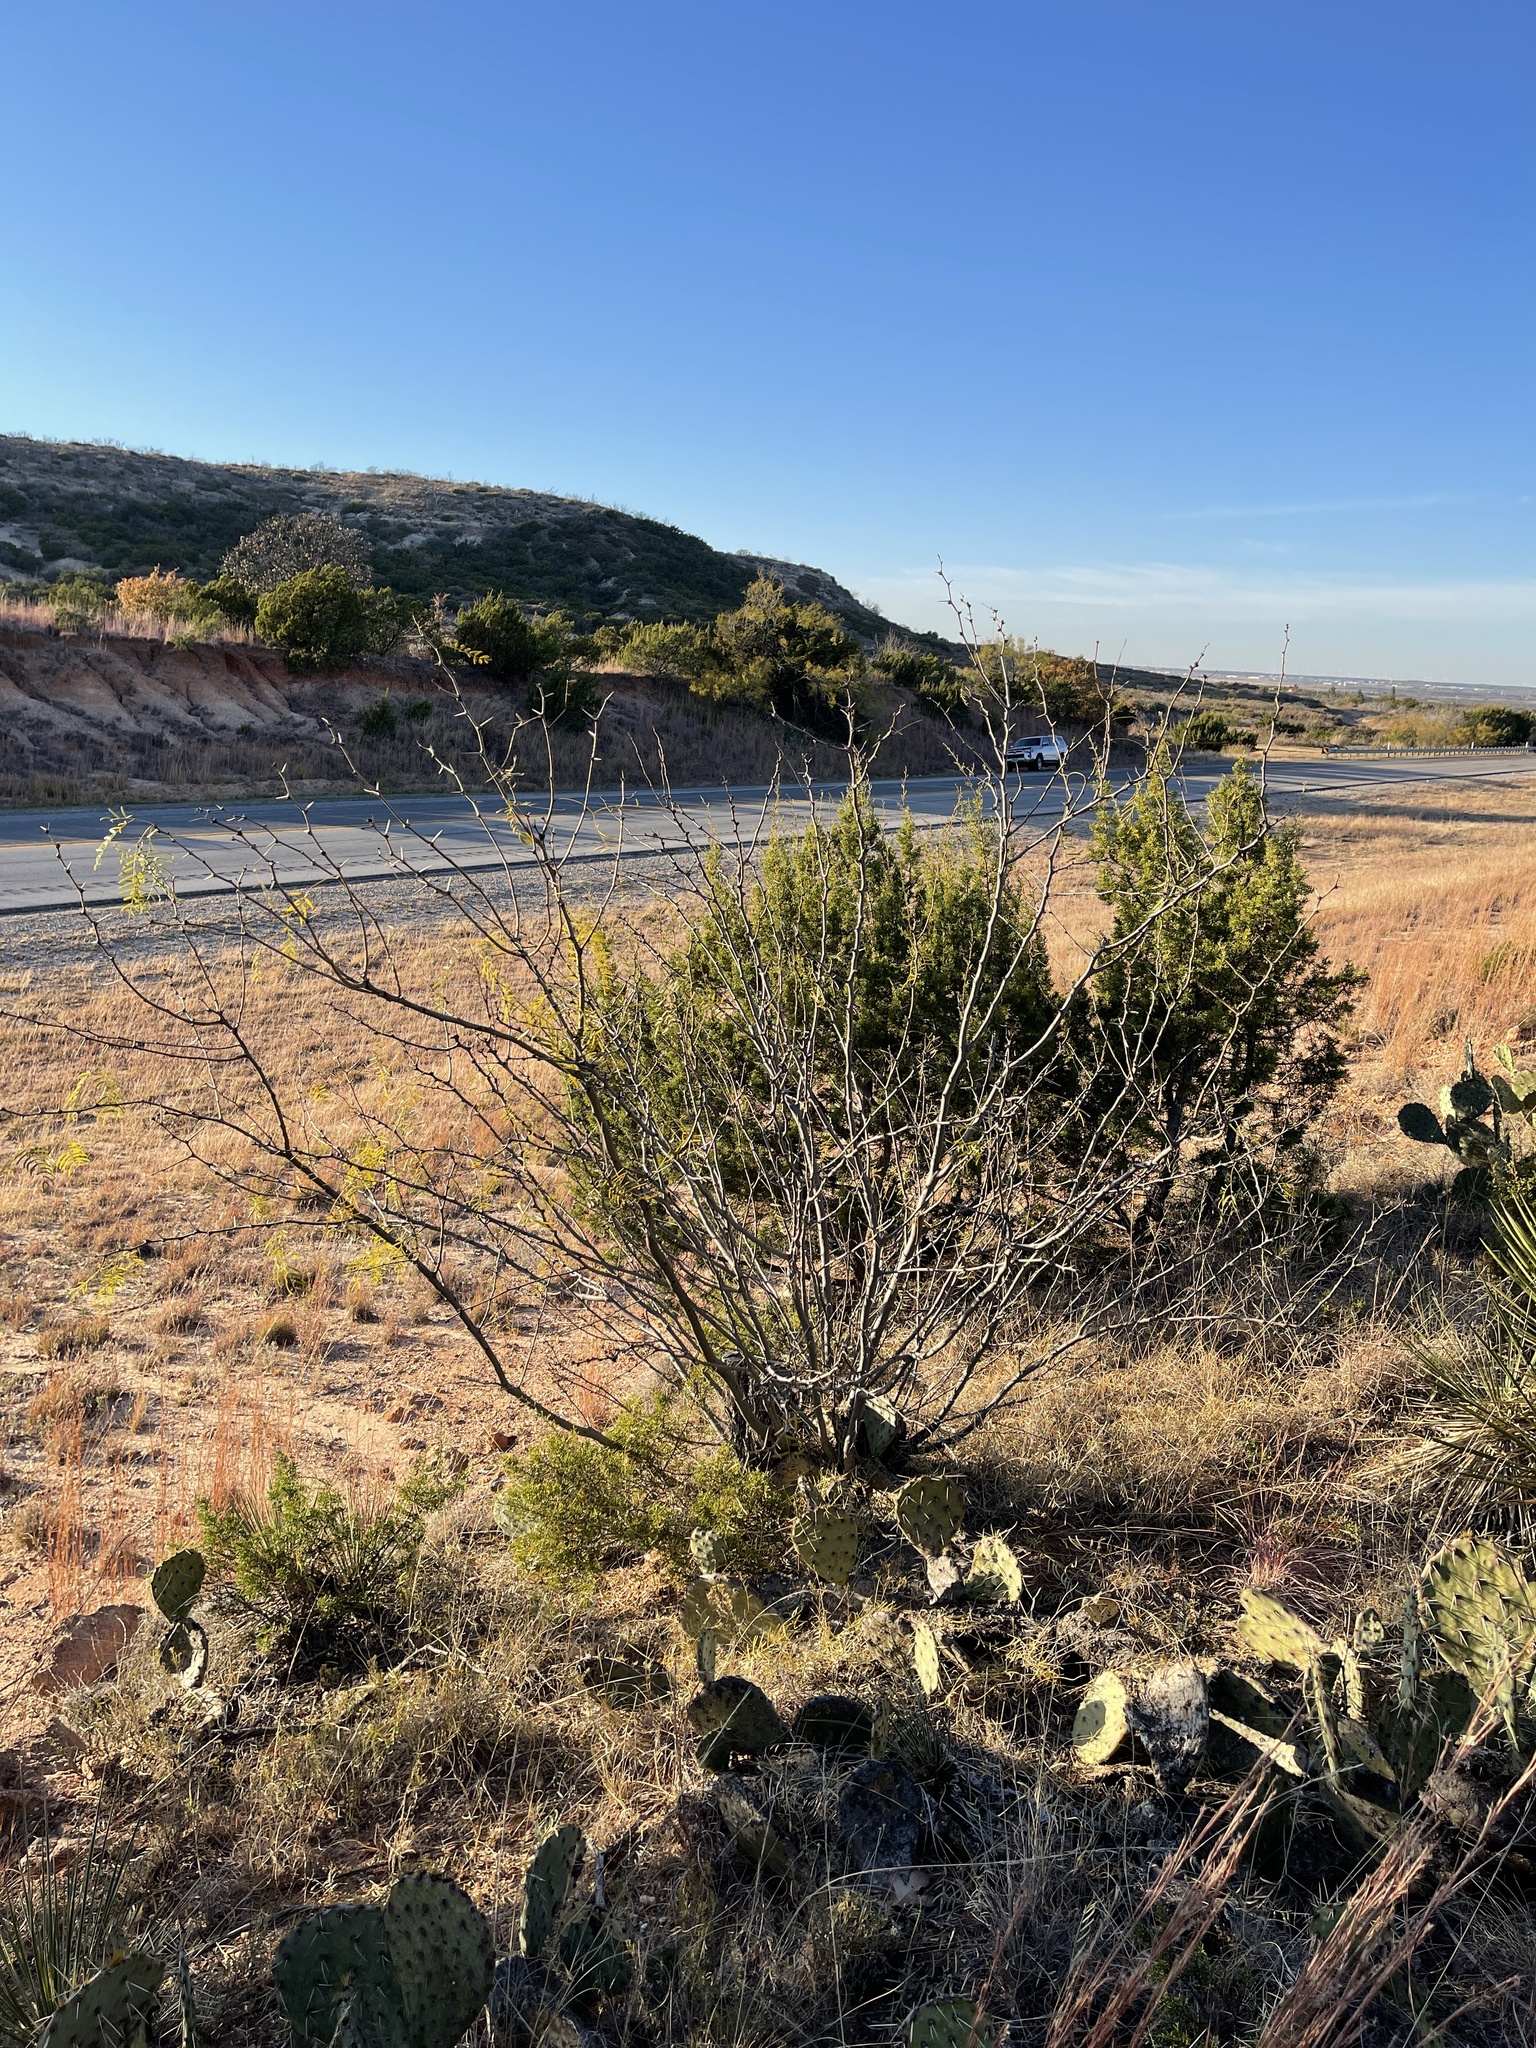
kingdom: Plantae
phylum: Tracheophyta
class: Magnoliopsida
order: Fabales
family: Fabaceae
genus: Prosopis
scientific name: Prosopis glandulosa
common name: Honey mesquite
